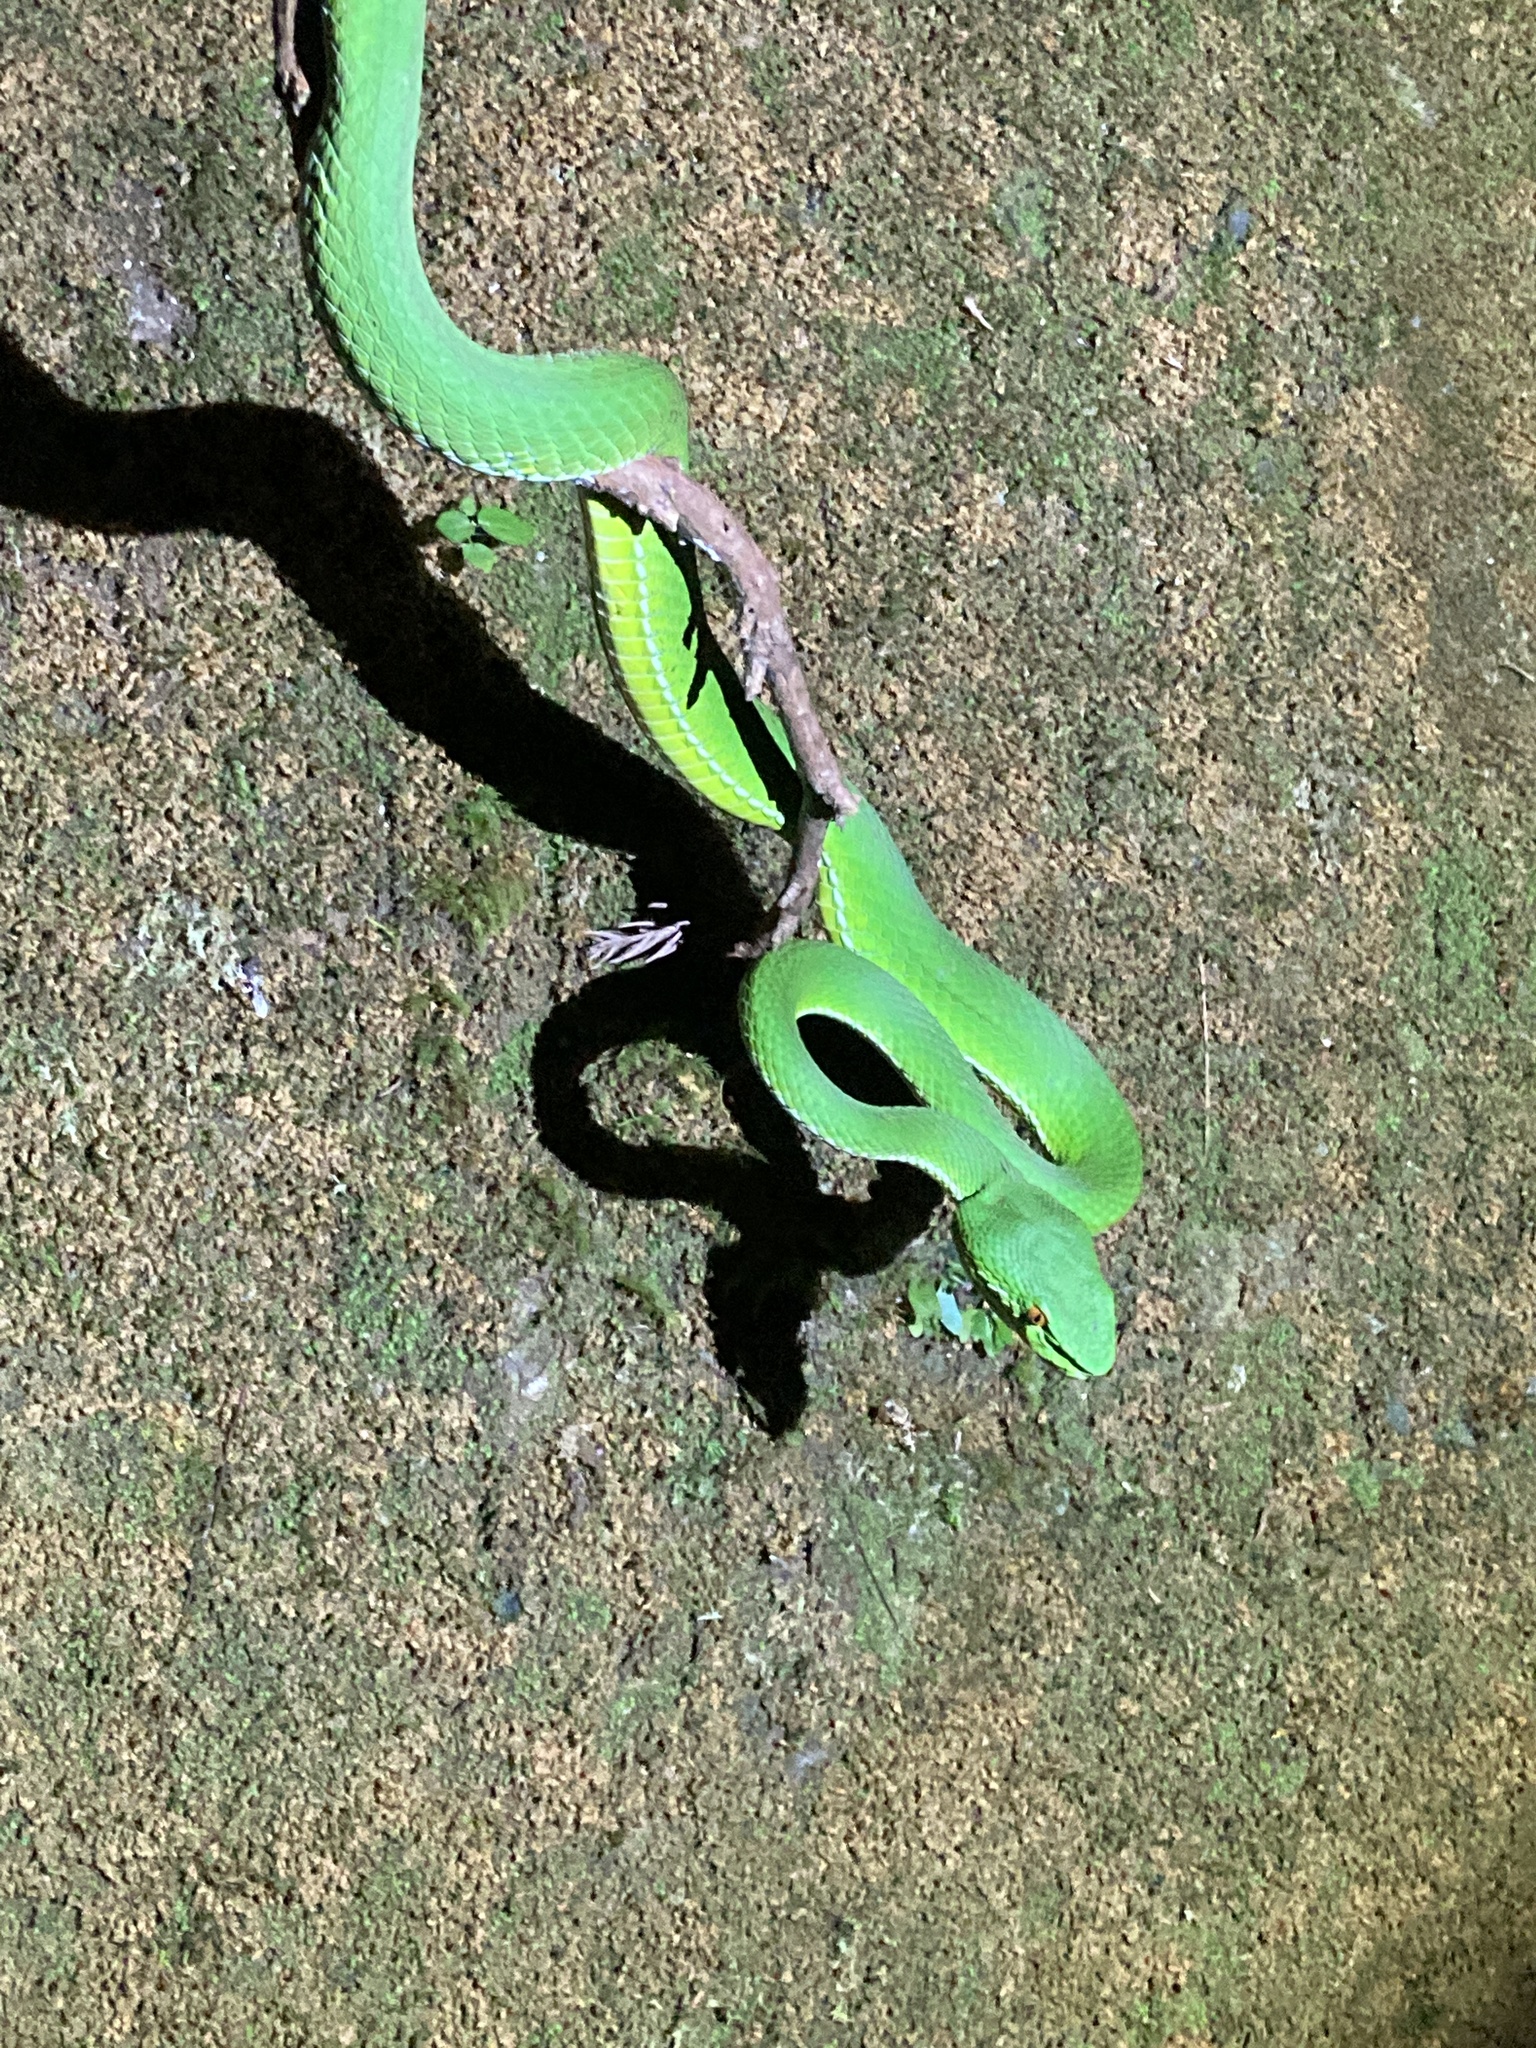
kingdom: Animalia
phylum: Chordata
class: Squamata
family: Viperidae
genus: Trimeresurus
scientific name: Trimeresurus stejnegeri
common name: Chen’s bamboo pit viper
